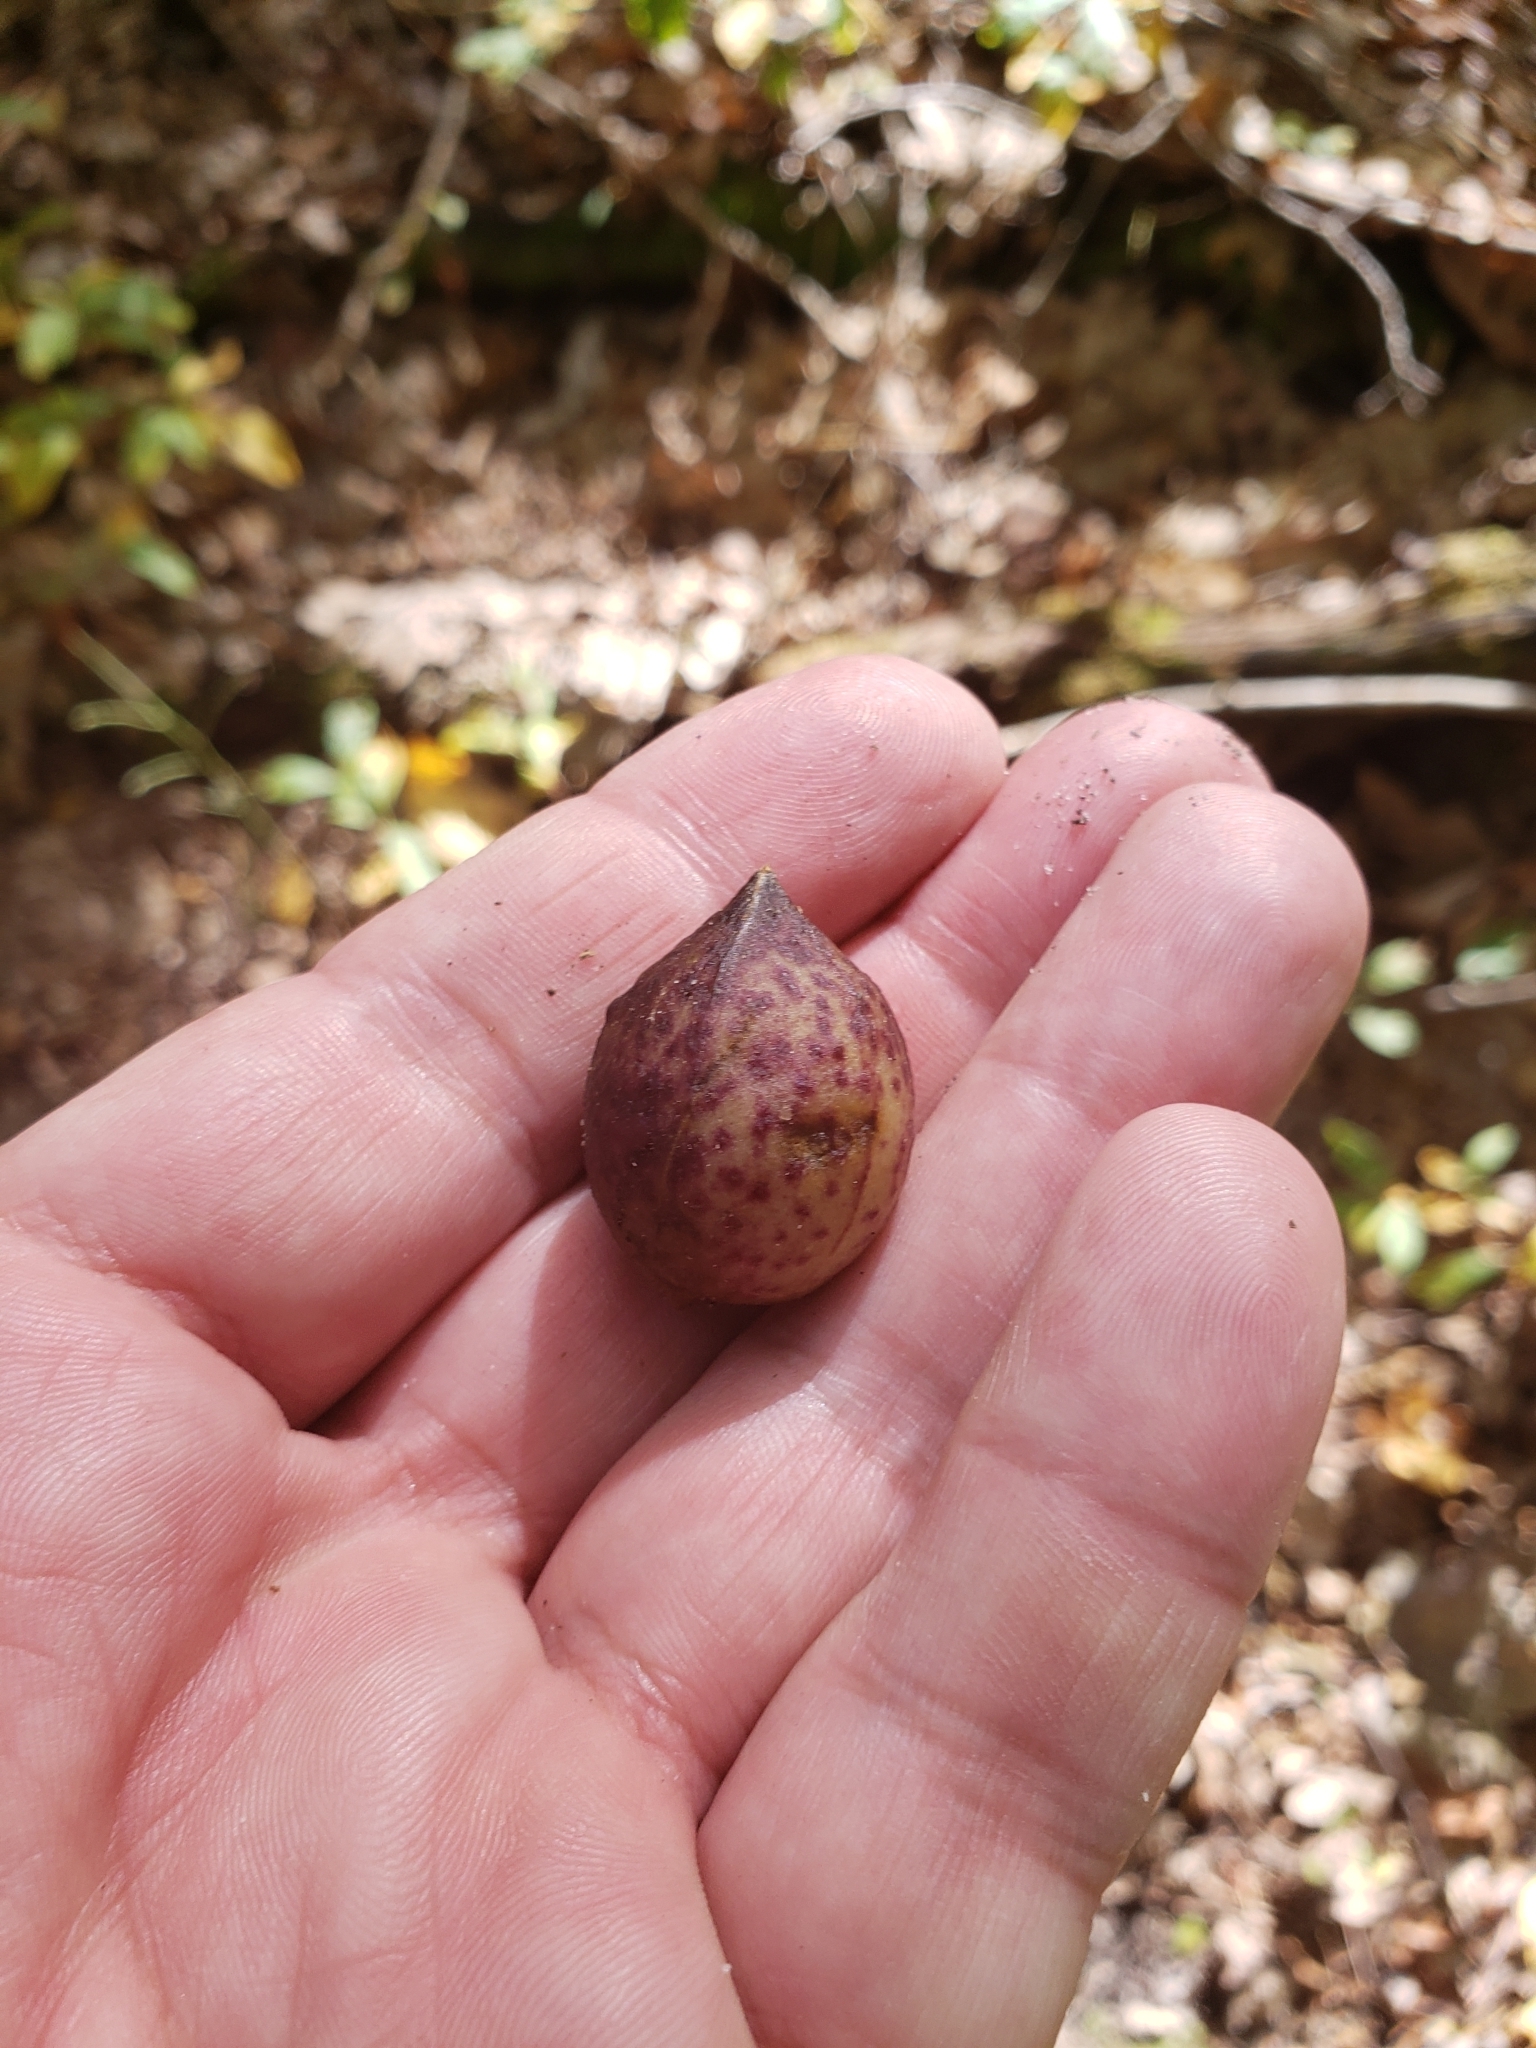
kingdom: Animalia
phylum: Arthropoda
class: Insecta
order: Hymenoptera
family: Cynipidae
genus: Amphibolips
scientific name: Amphibolips
